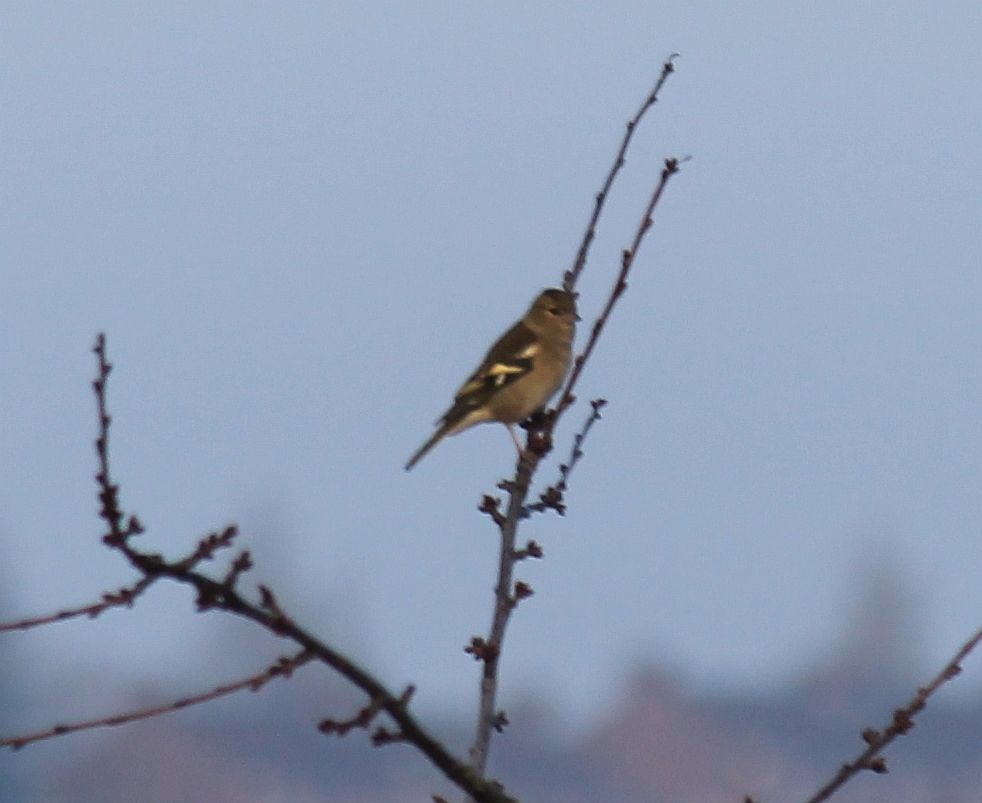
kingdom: Animalia
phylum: Chordata
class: Aves
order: Passeriformes
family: Fringillidae
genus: Fringilla
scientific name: Fringilla coelebs
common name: Common chaffinch
